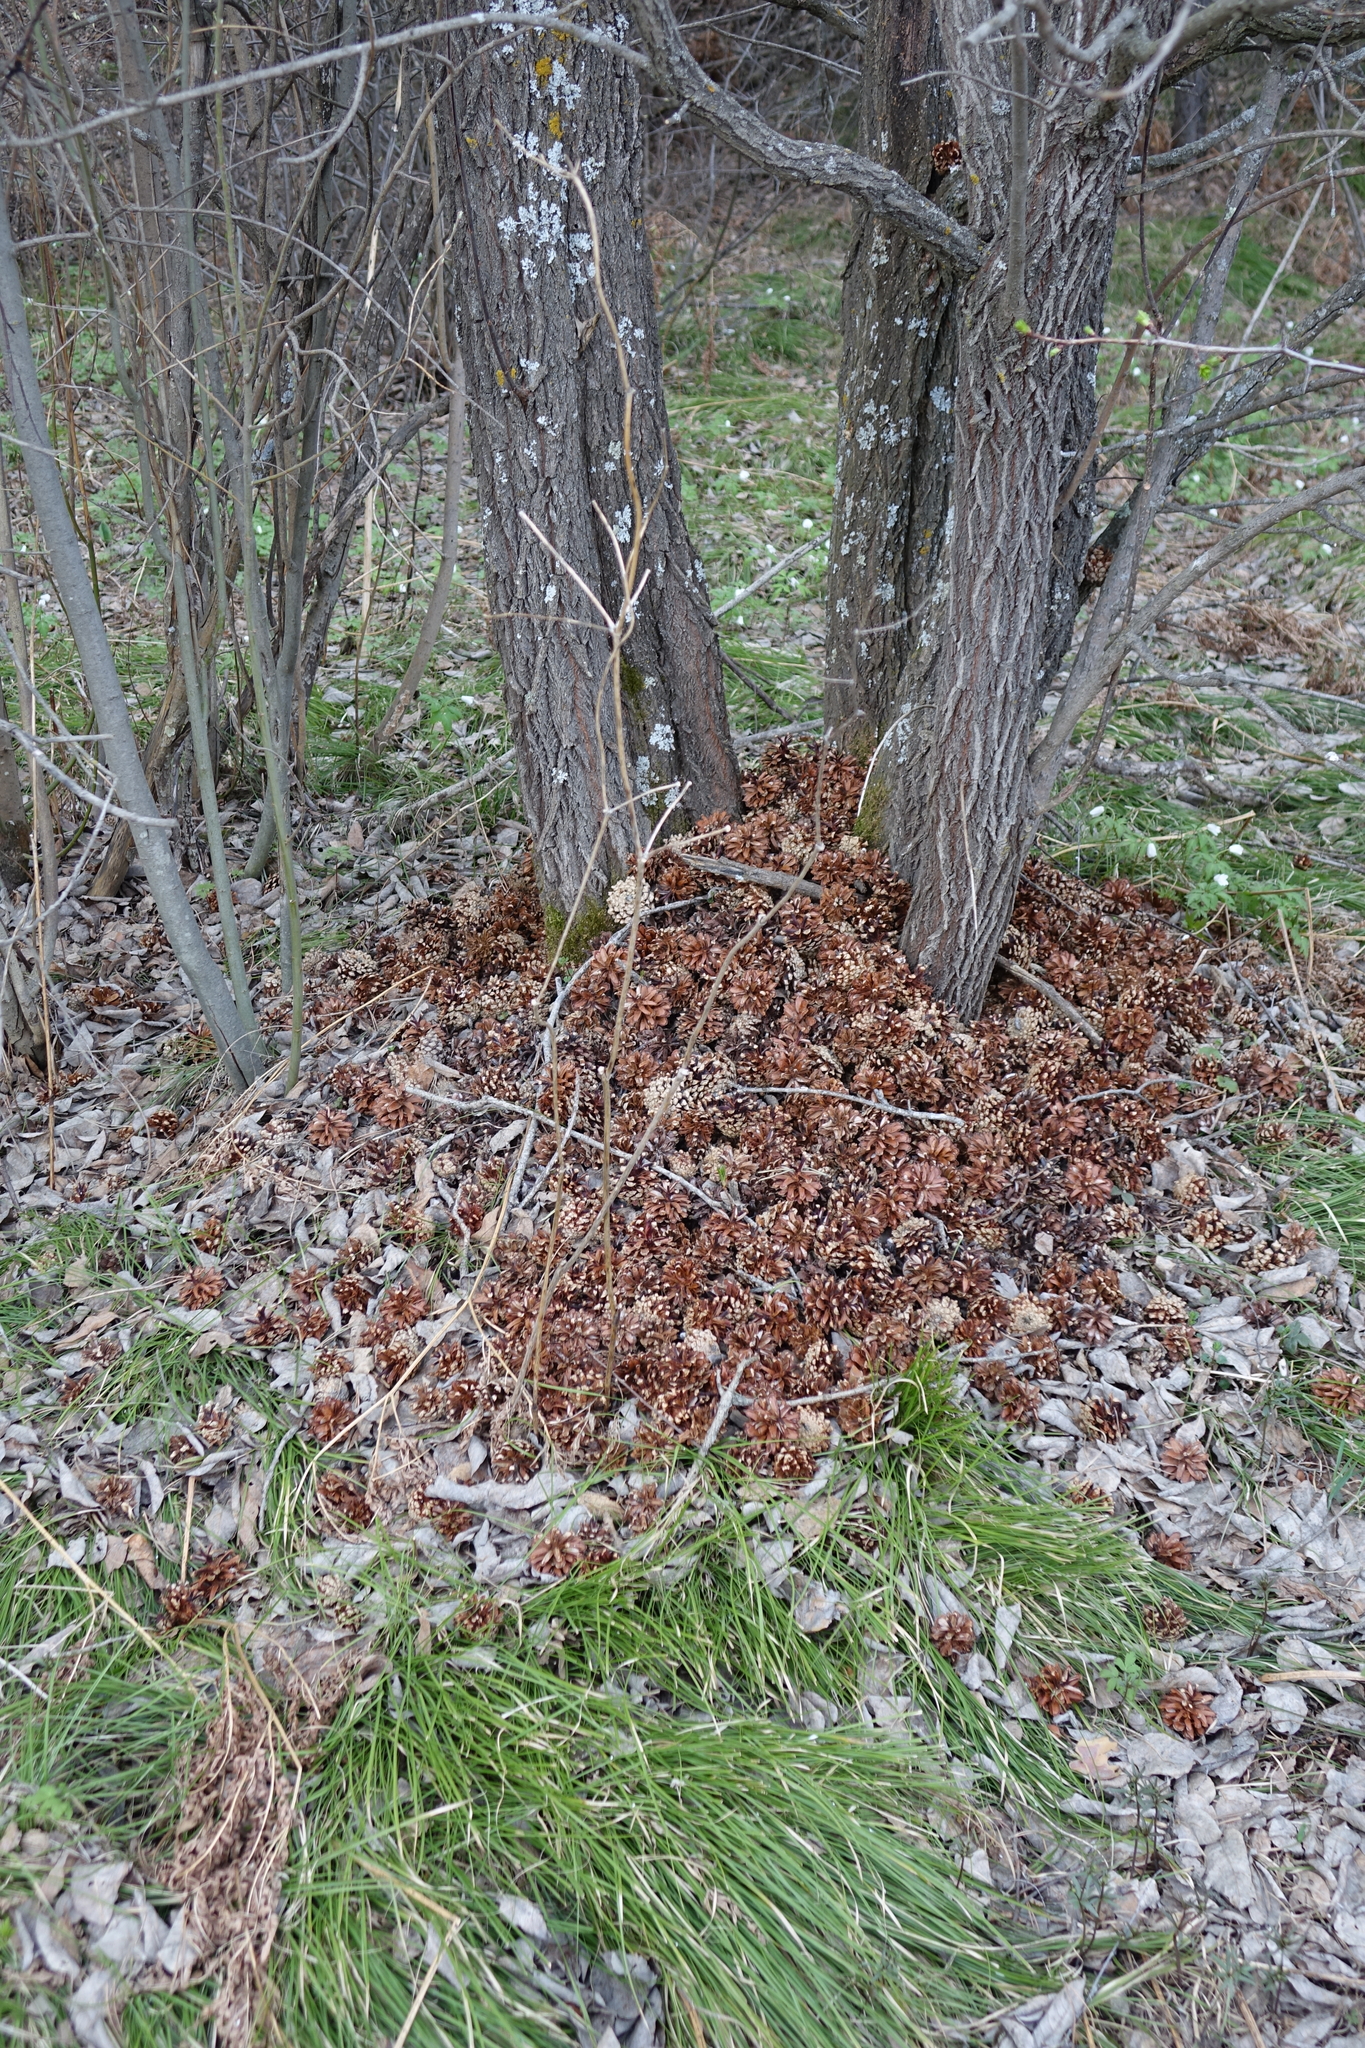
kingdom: Animalia
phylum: Chordata
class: Aves
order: Piciformes
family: Picidae
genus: Dendrocopos
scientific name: Dendrocopos major
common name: Great spotted woodpecker
